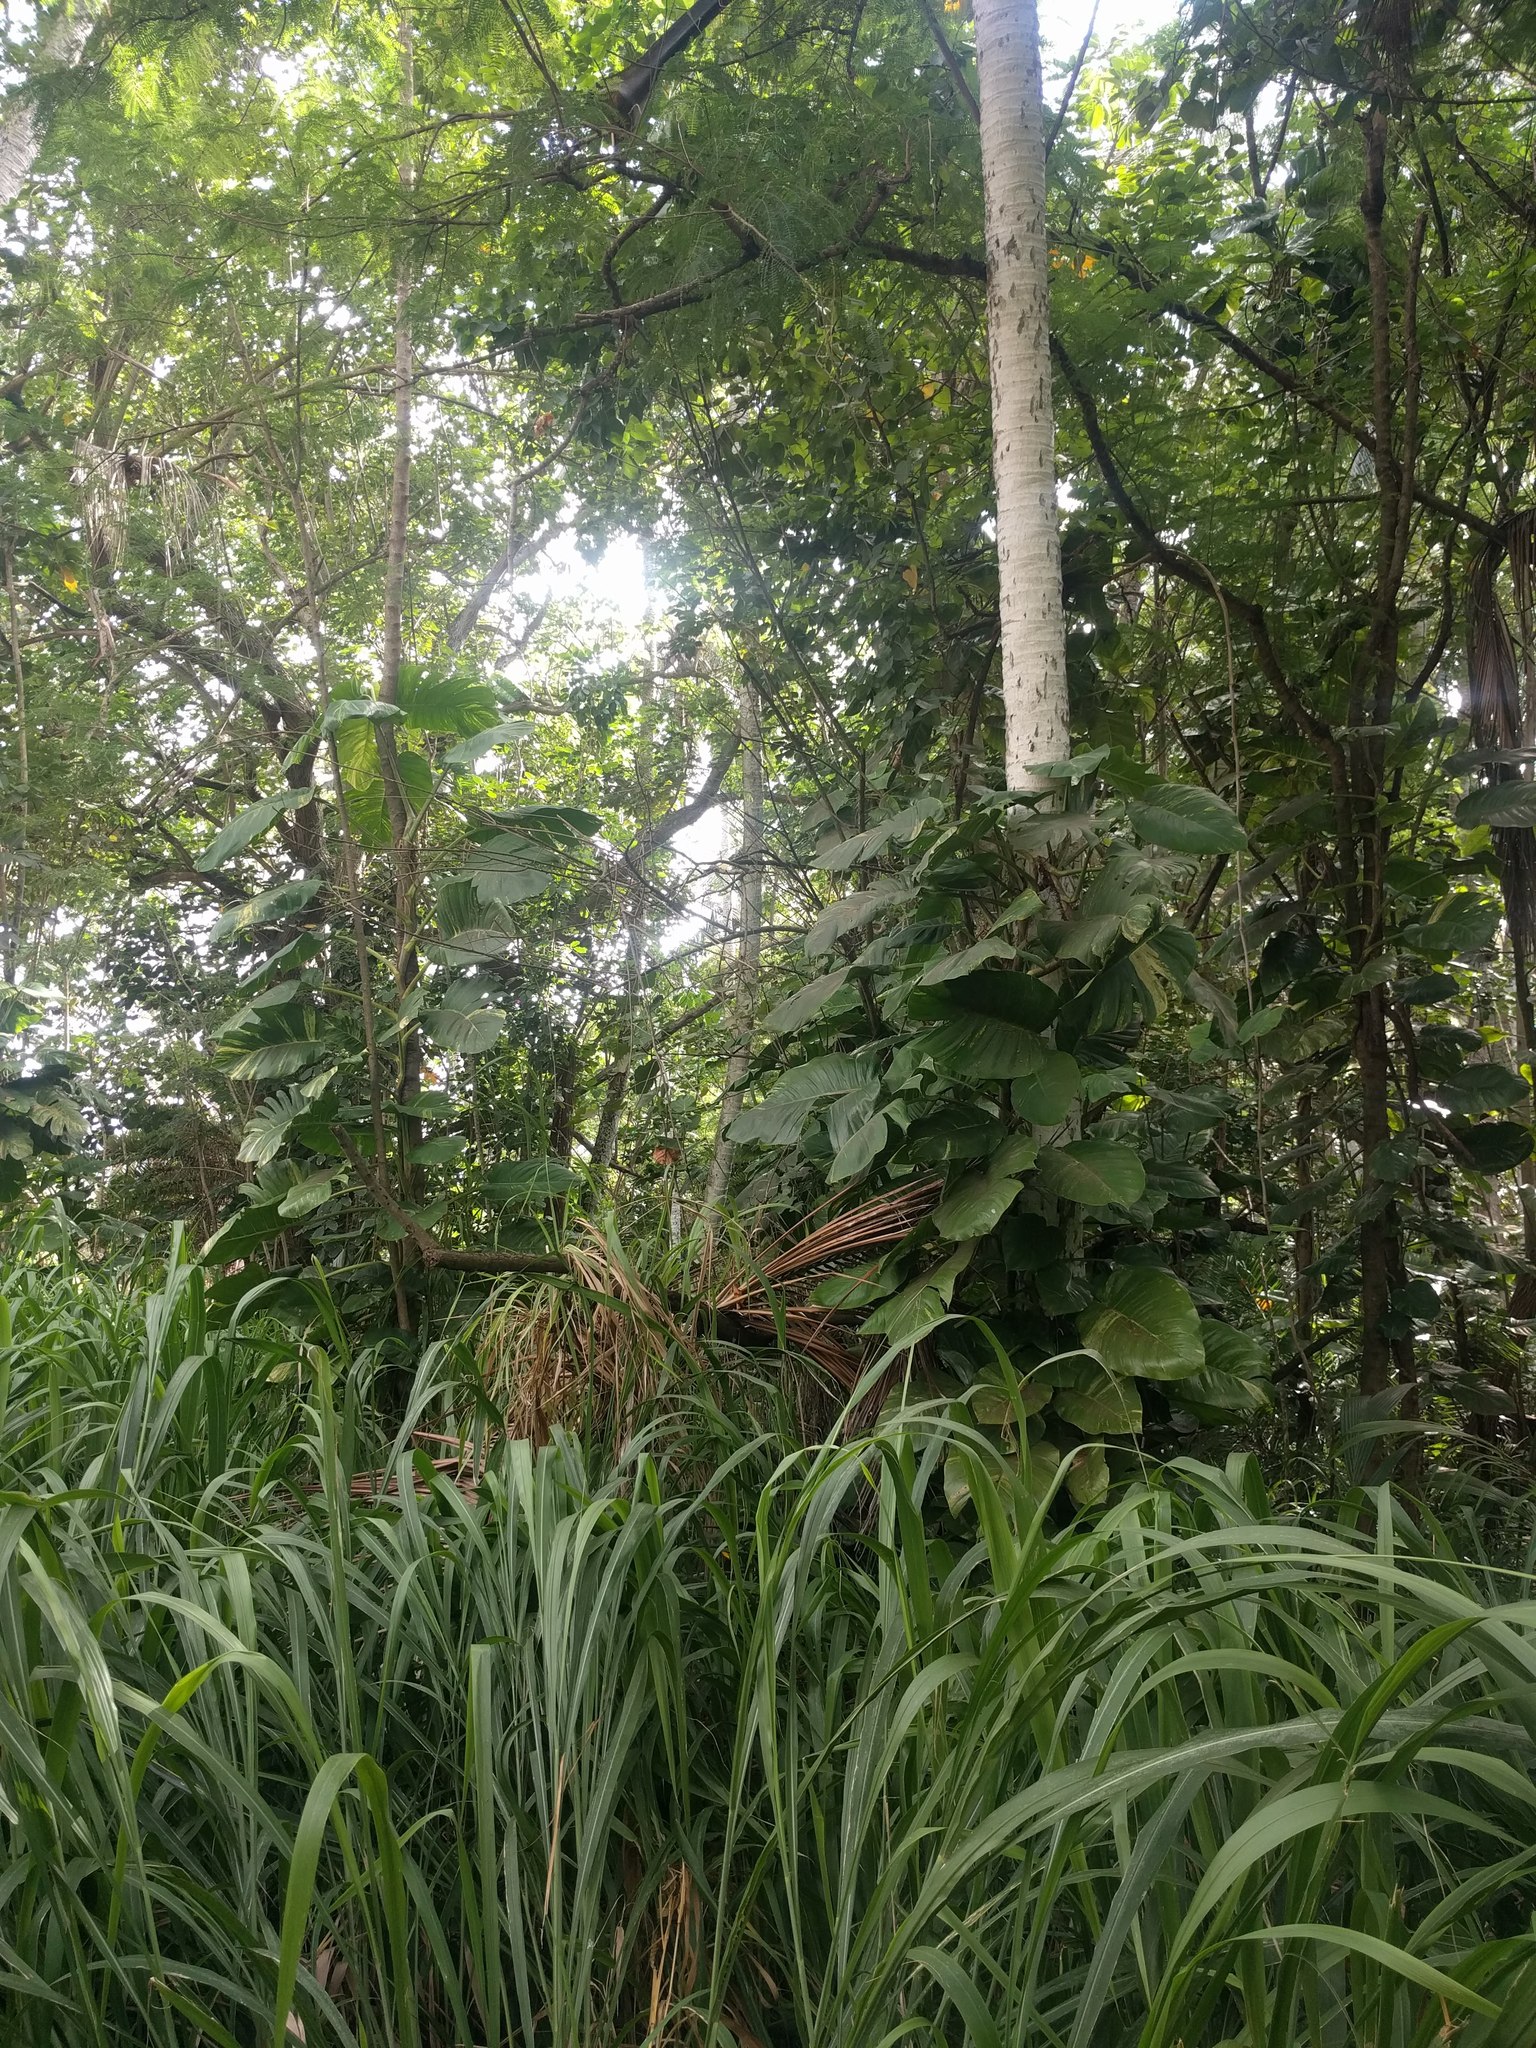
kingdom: Plantae
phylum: Tracheophyta
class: Liliopsida
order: Alismatales
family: Araceae
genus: Epipremnum
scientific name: Epipremnum aureum
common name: Golden hunter's-robe
